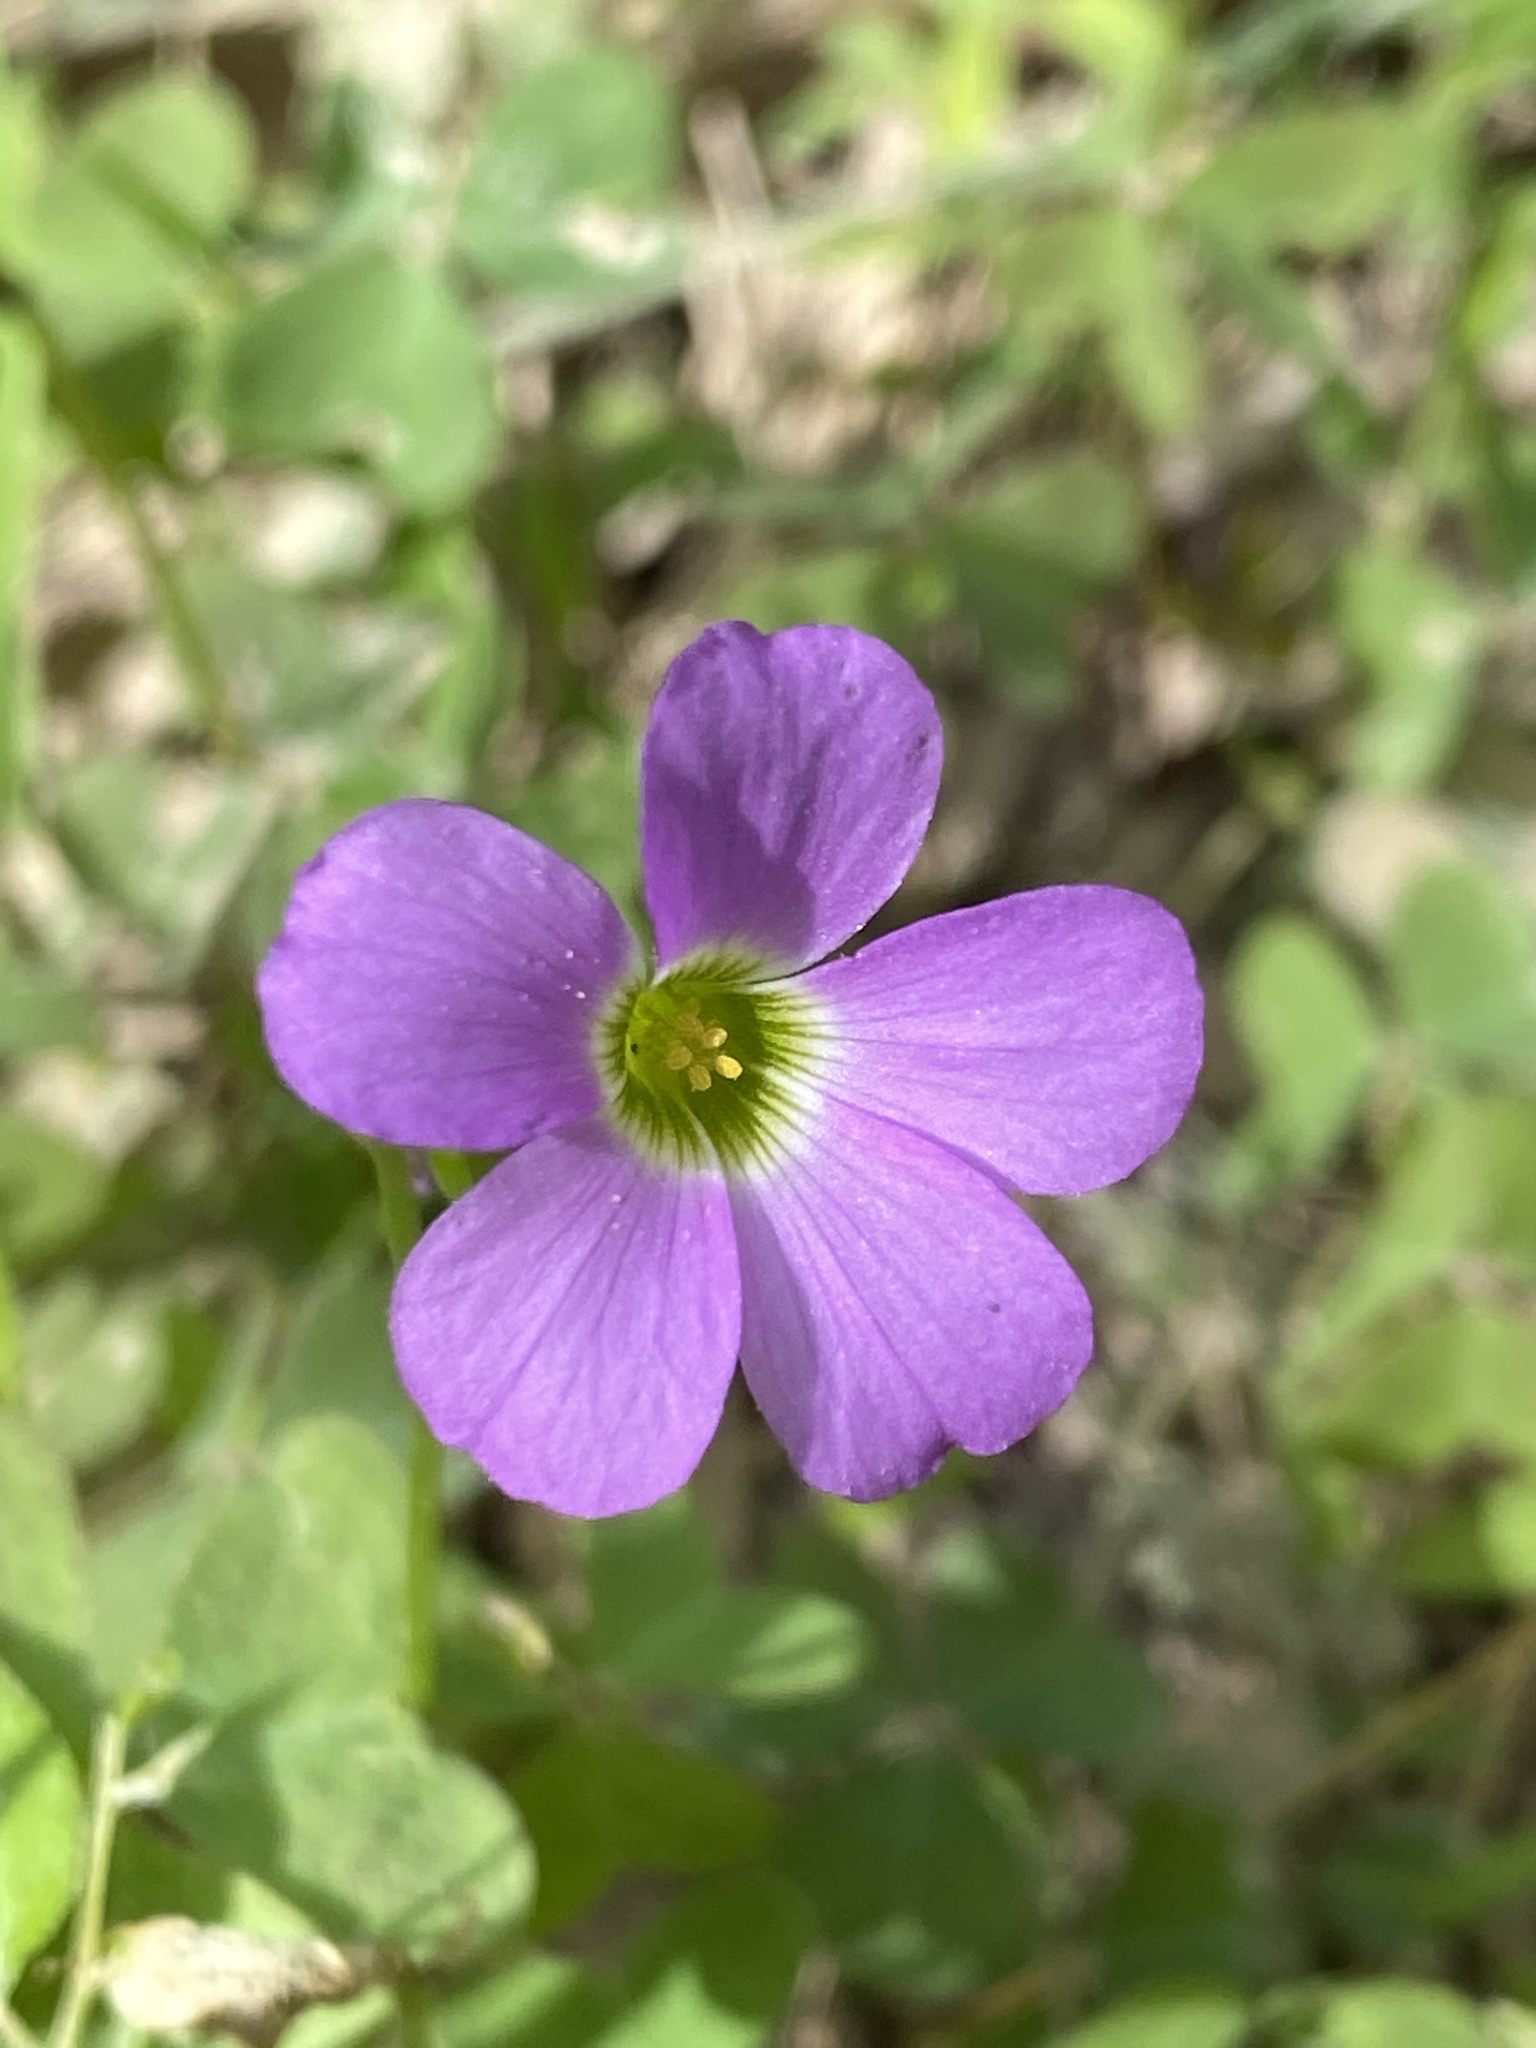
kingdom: Plantae
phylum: Tracheophyta
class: Magnoliopsida
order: Oxalidales
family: Oxalidaceae
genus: Oxalis
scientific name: Oxalis violacea
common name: Violet wood-sorrel
